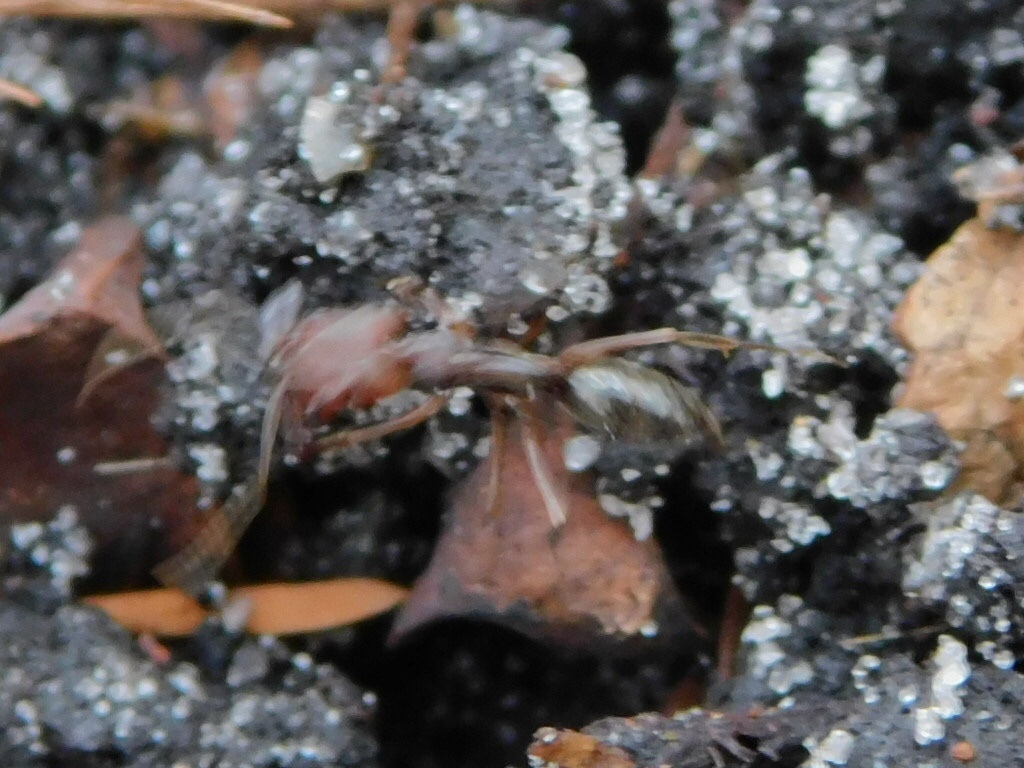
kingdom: Animalia
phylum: Arthropoda
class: Insecta
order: Hymenoptera
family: Formicidae
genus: Odontomachus
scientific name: Odontomachus ruginodis
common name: Trapjaw ant
